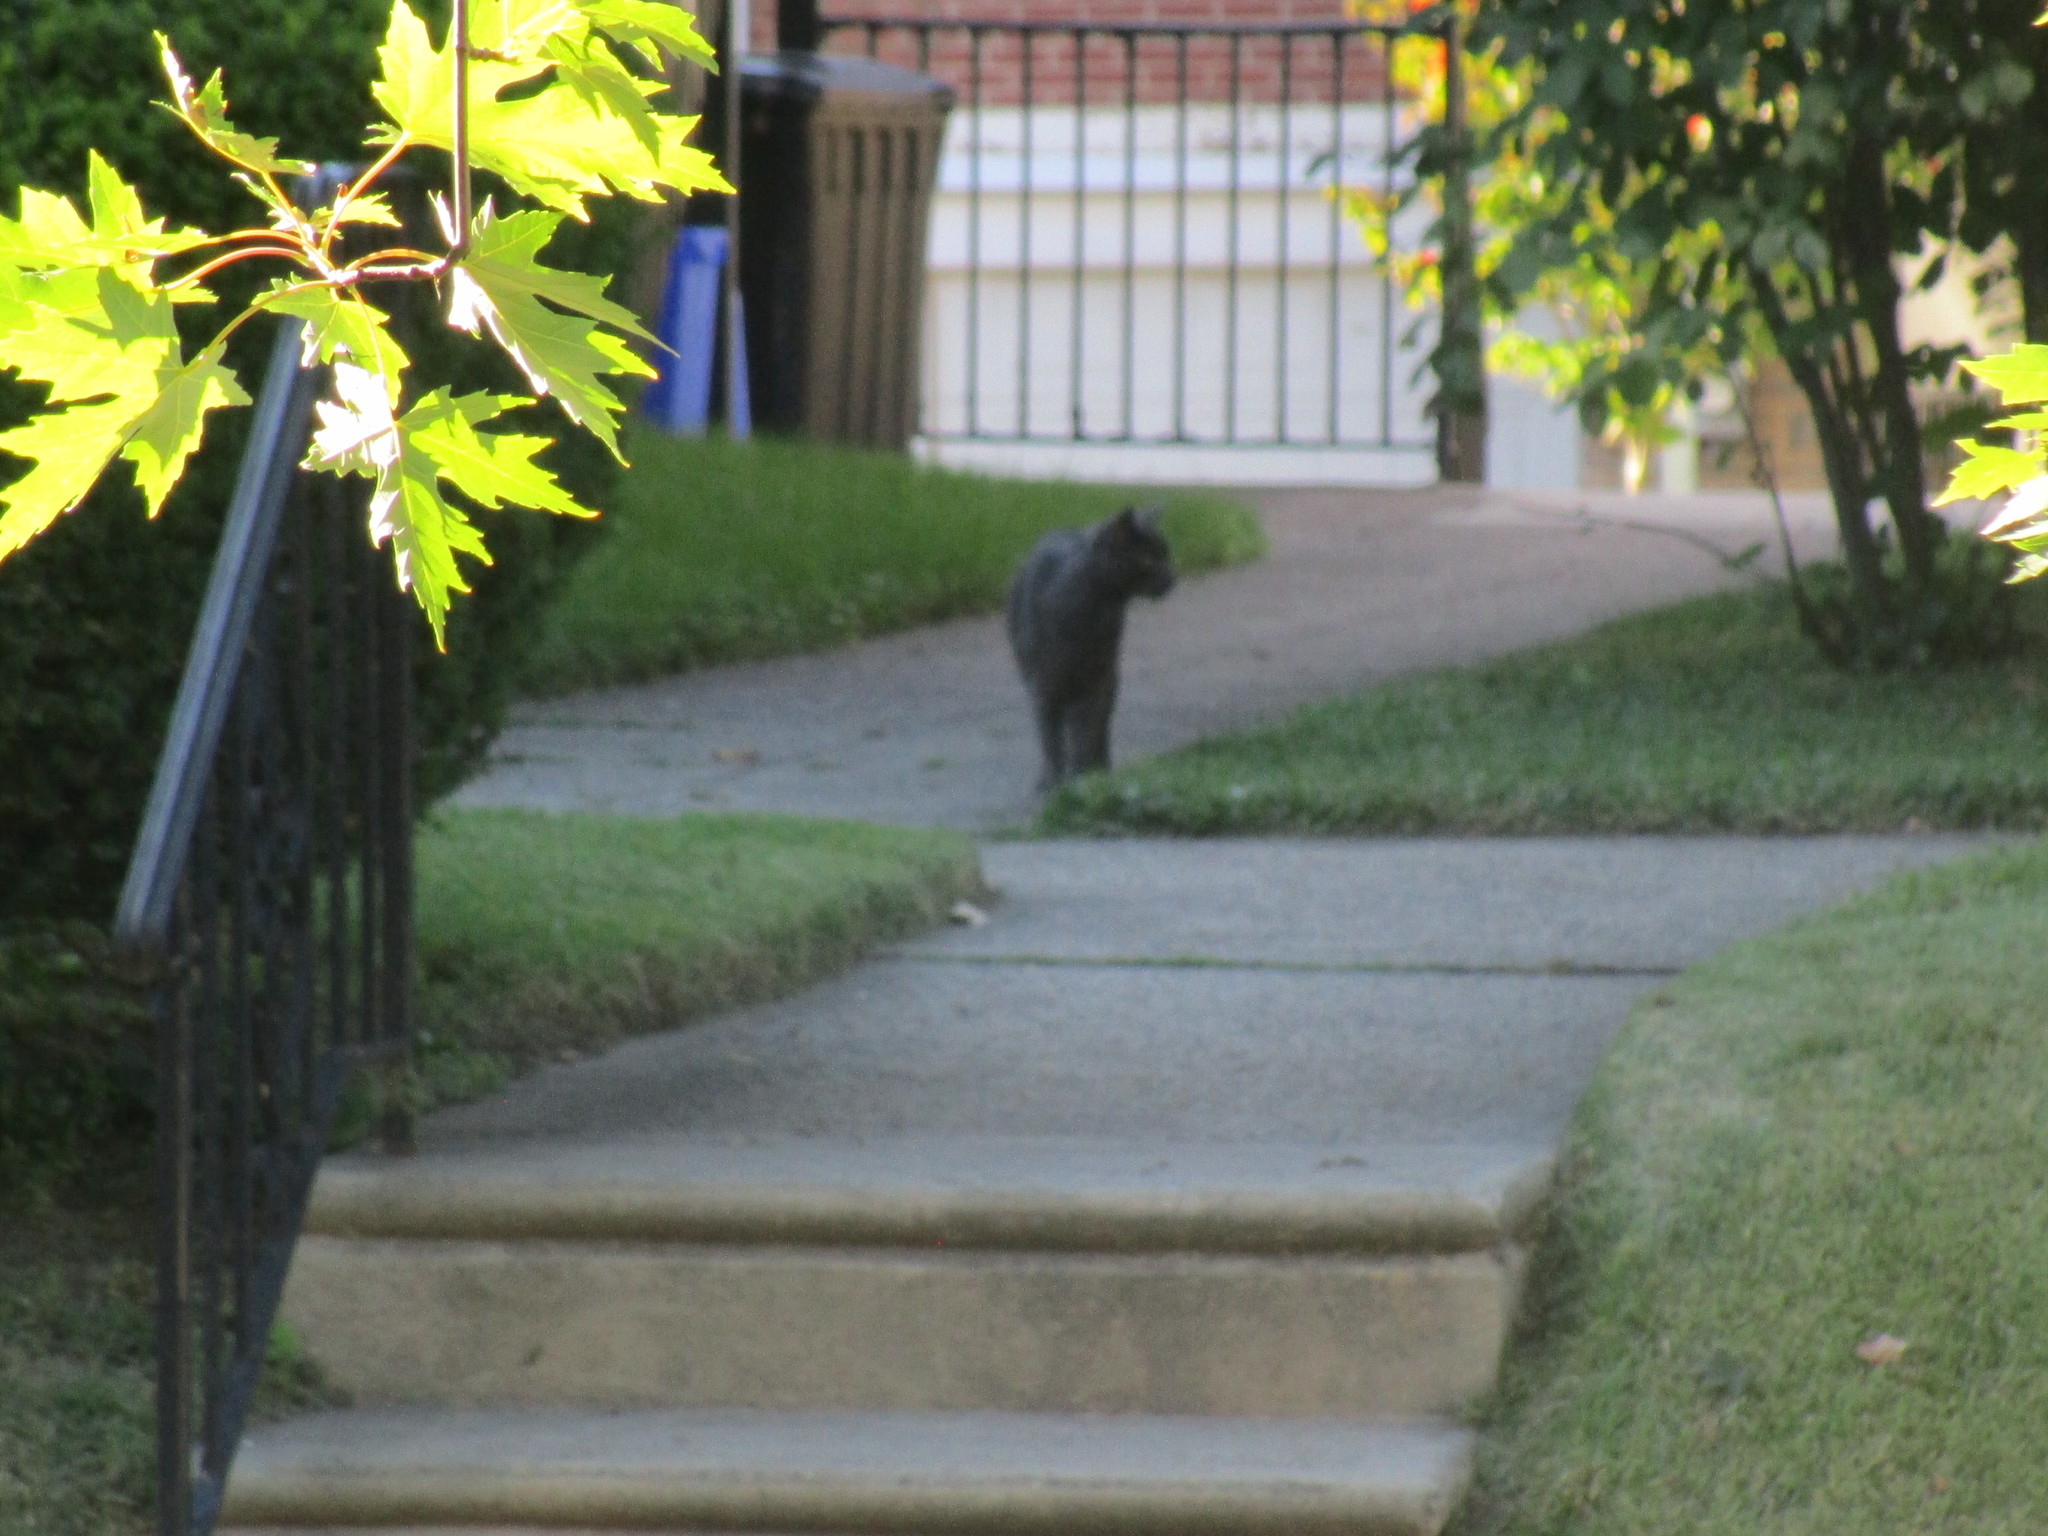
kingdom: Animalia
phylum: Chordata
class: Mammalia
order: Carnivora
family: Felidae
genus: Felis
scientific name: Felis catus
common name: Domestic cat
